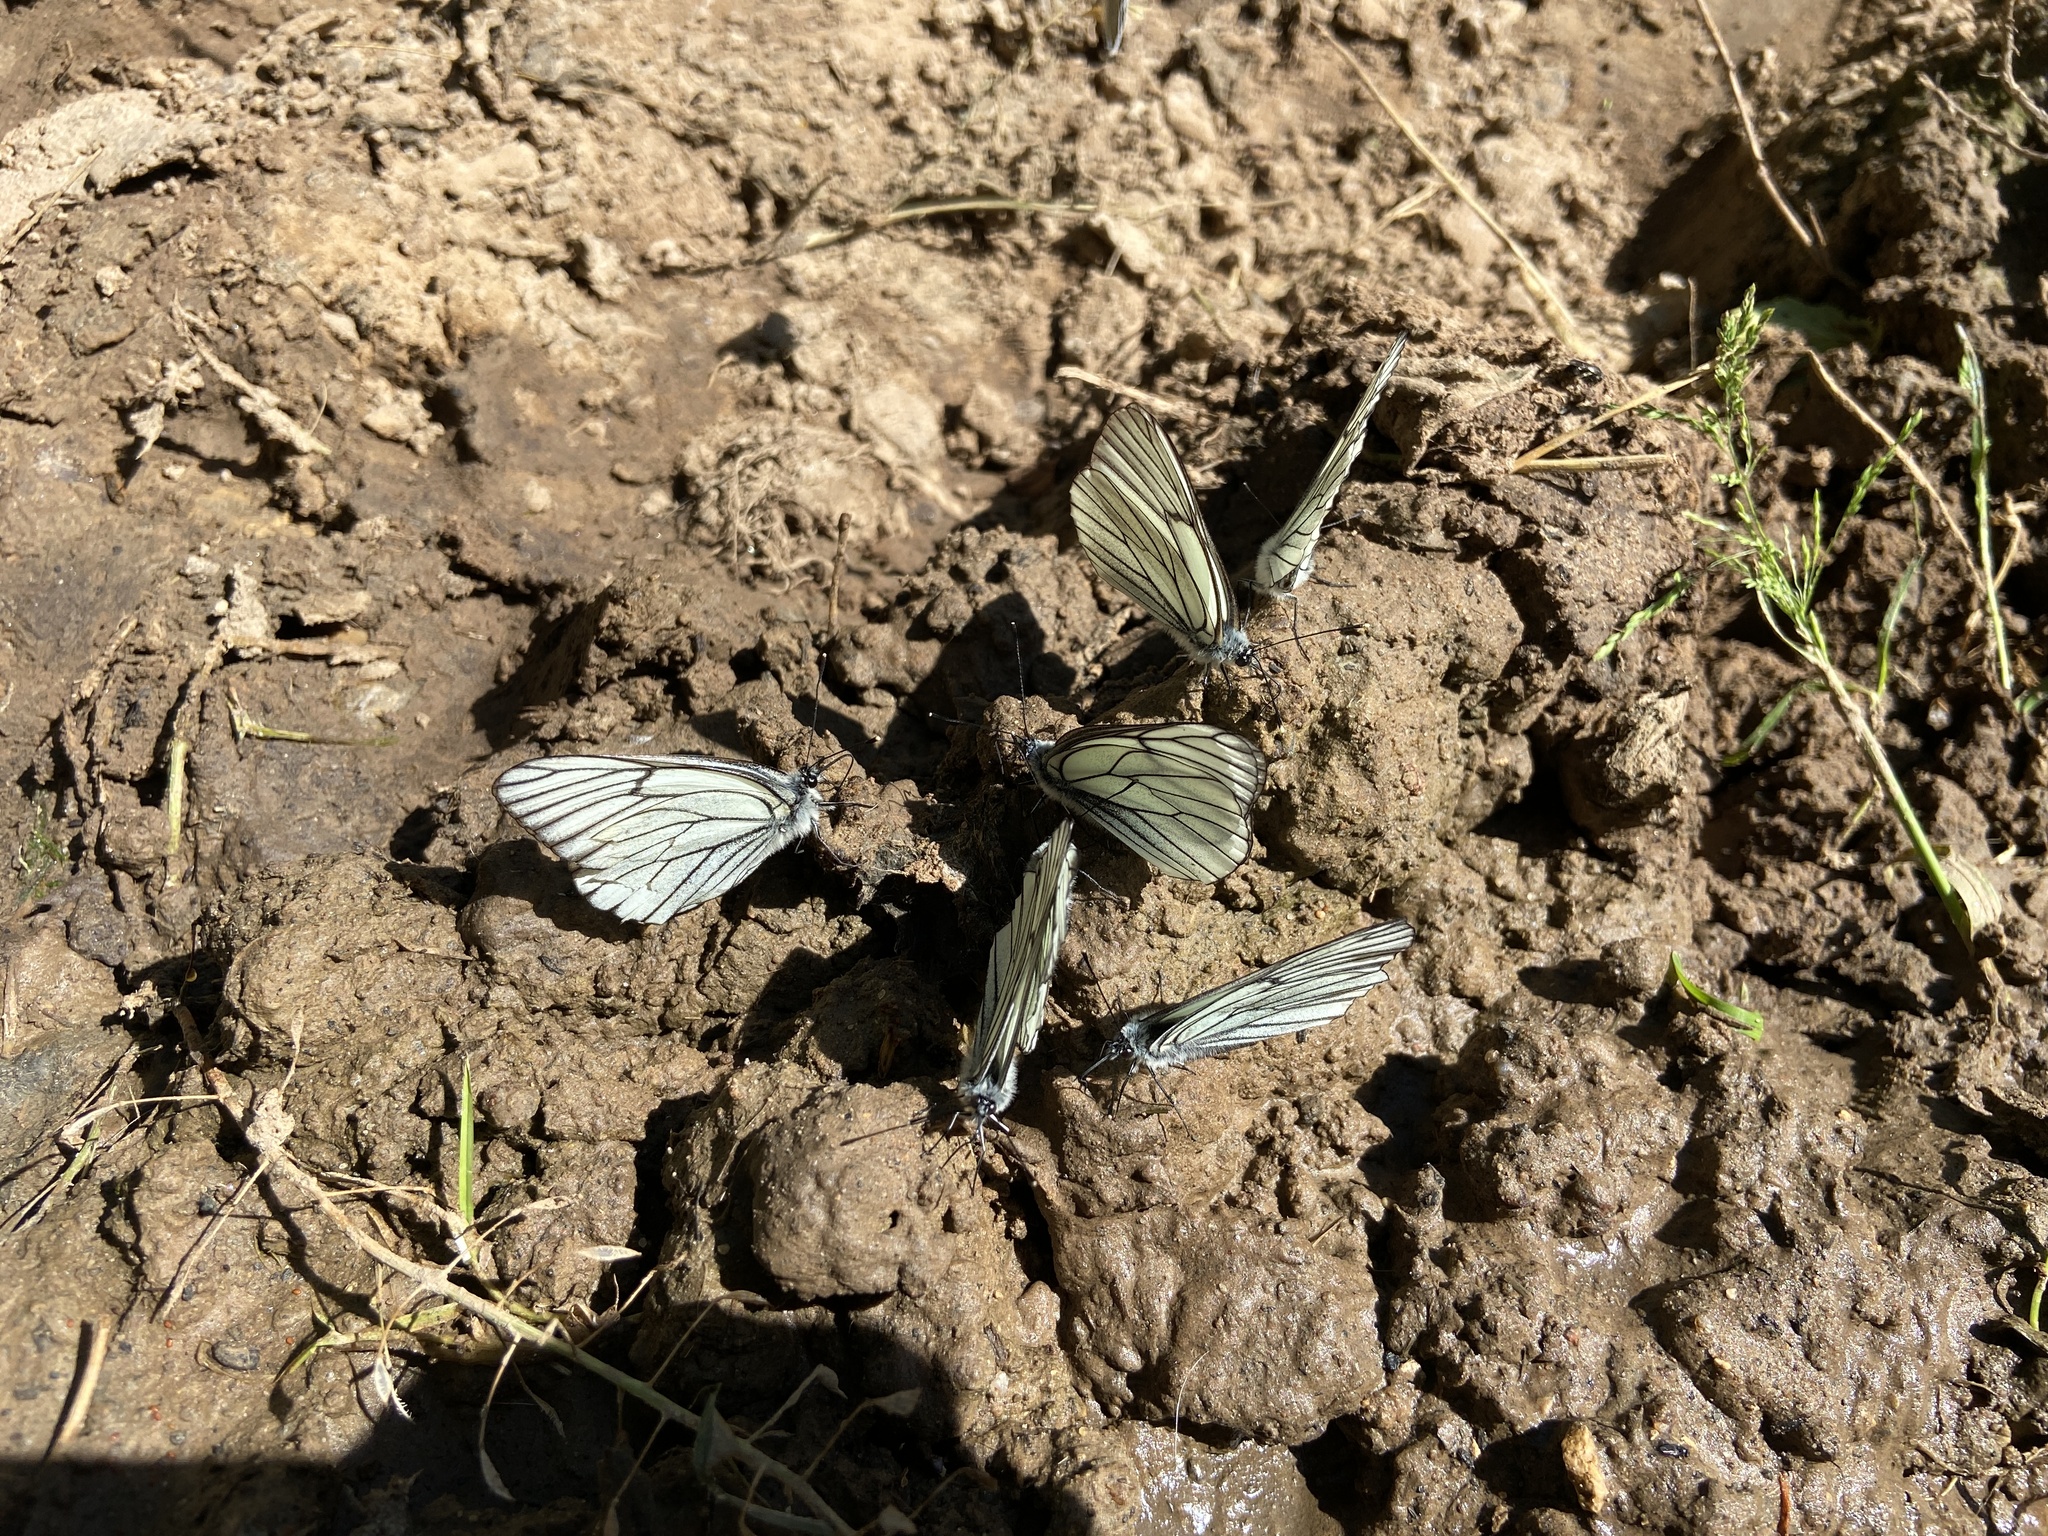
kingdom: Animalia
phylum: Arthropoda
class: Insecta
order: Lepidoptera
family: Pieridae
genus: Aporia
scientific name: Aporia crataegi
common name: Black-veined white
